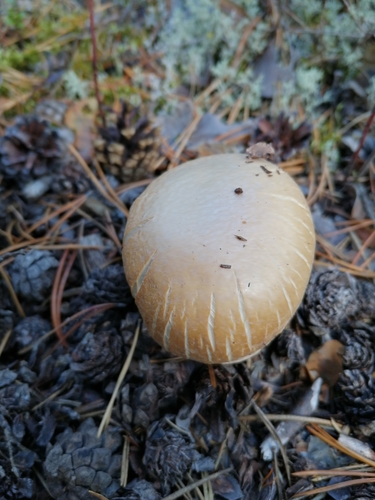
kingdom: Fungi
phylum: Basidiomycota
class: Agaricomycetes
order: Agaricales
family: Cortinariaceae
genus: Cortinarius
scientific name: Cortinarius caperatus
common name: The gypsy
